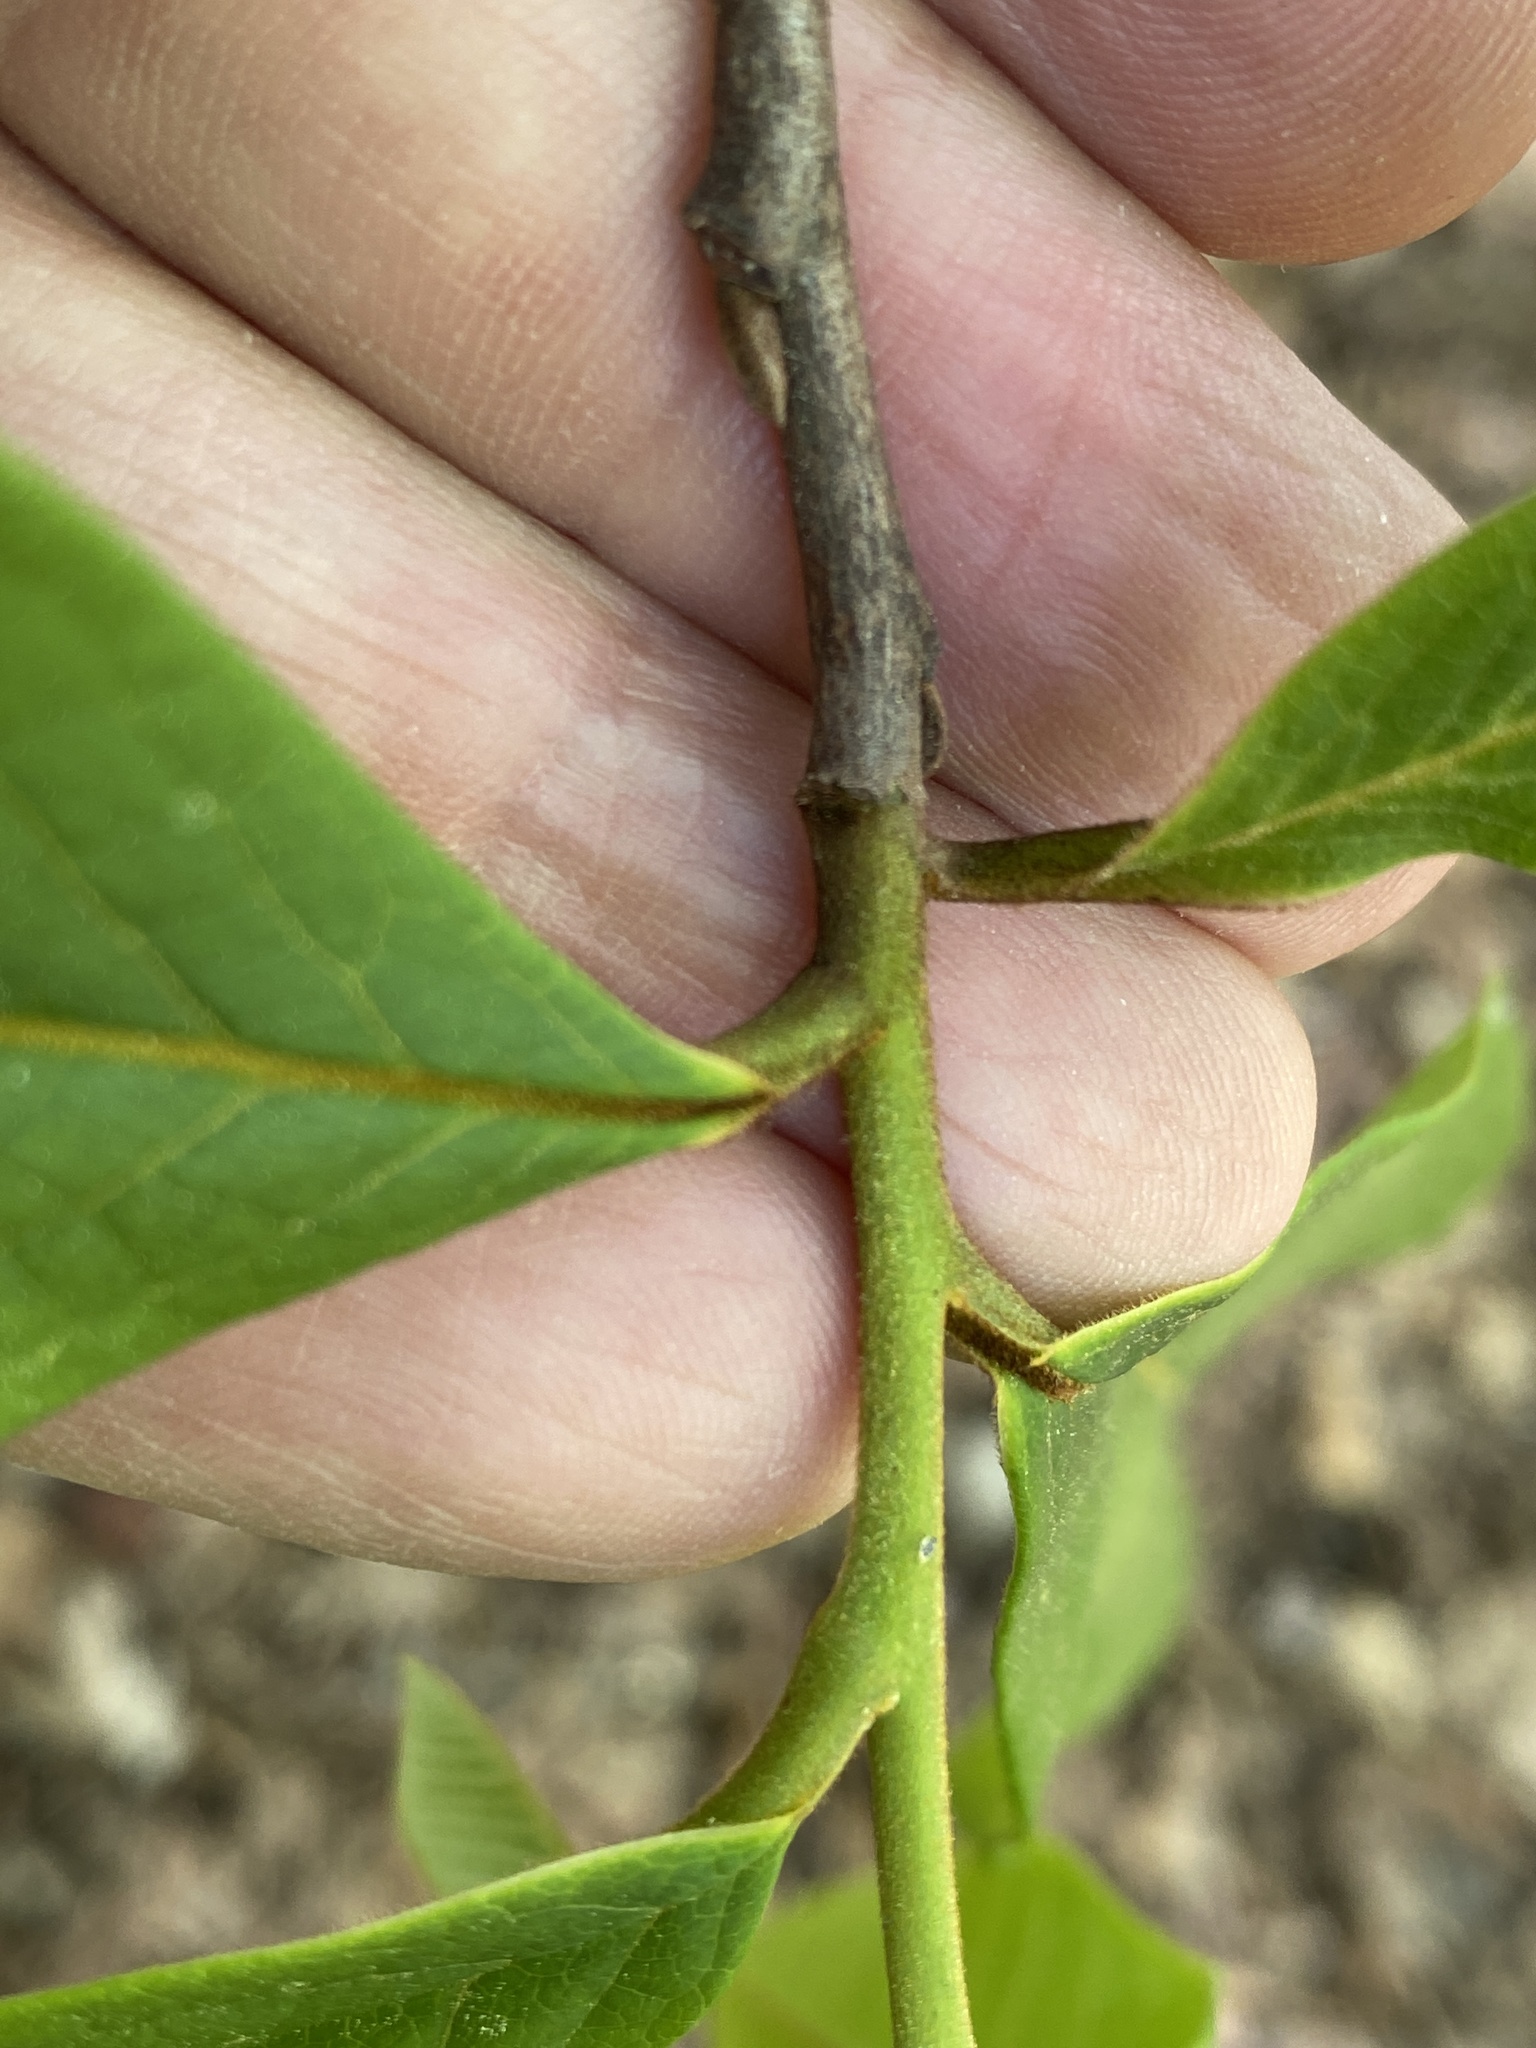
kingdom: Plantae
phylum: Tracheophyta
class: Magnoliopsida
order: Magnoliales
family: Annonaceae
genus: Asimina
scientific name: Asimina triloba
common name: Dog-banana
